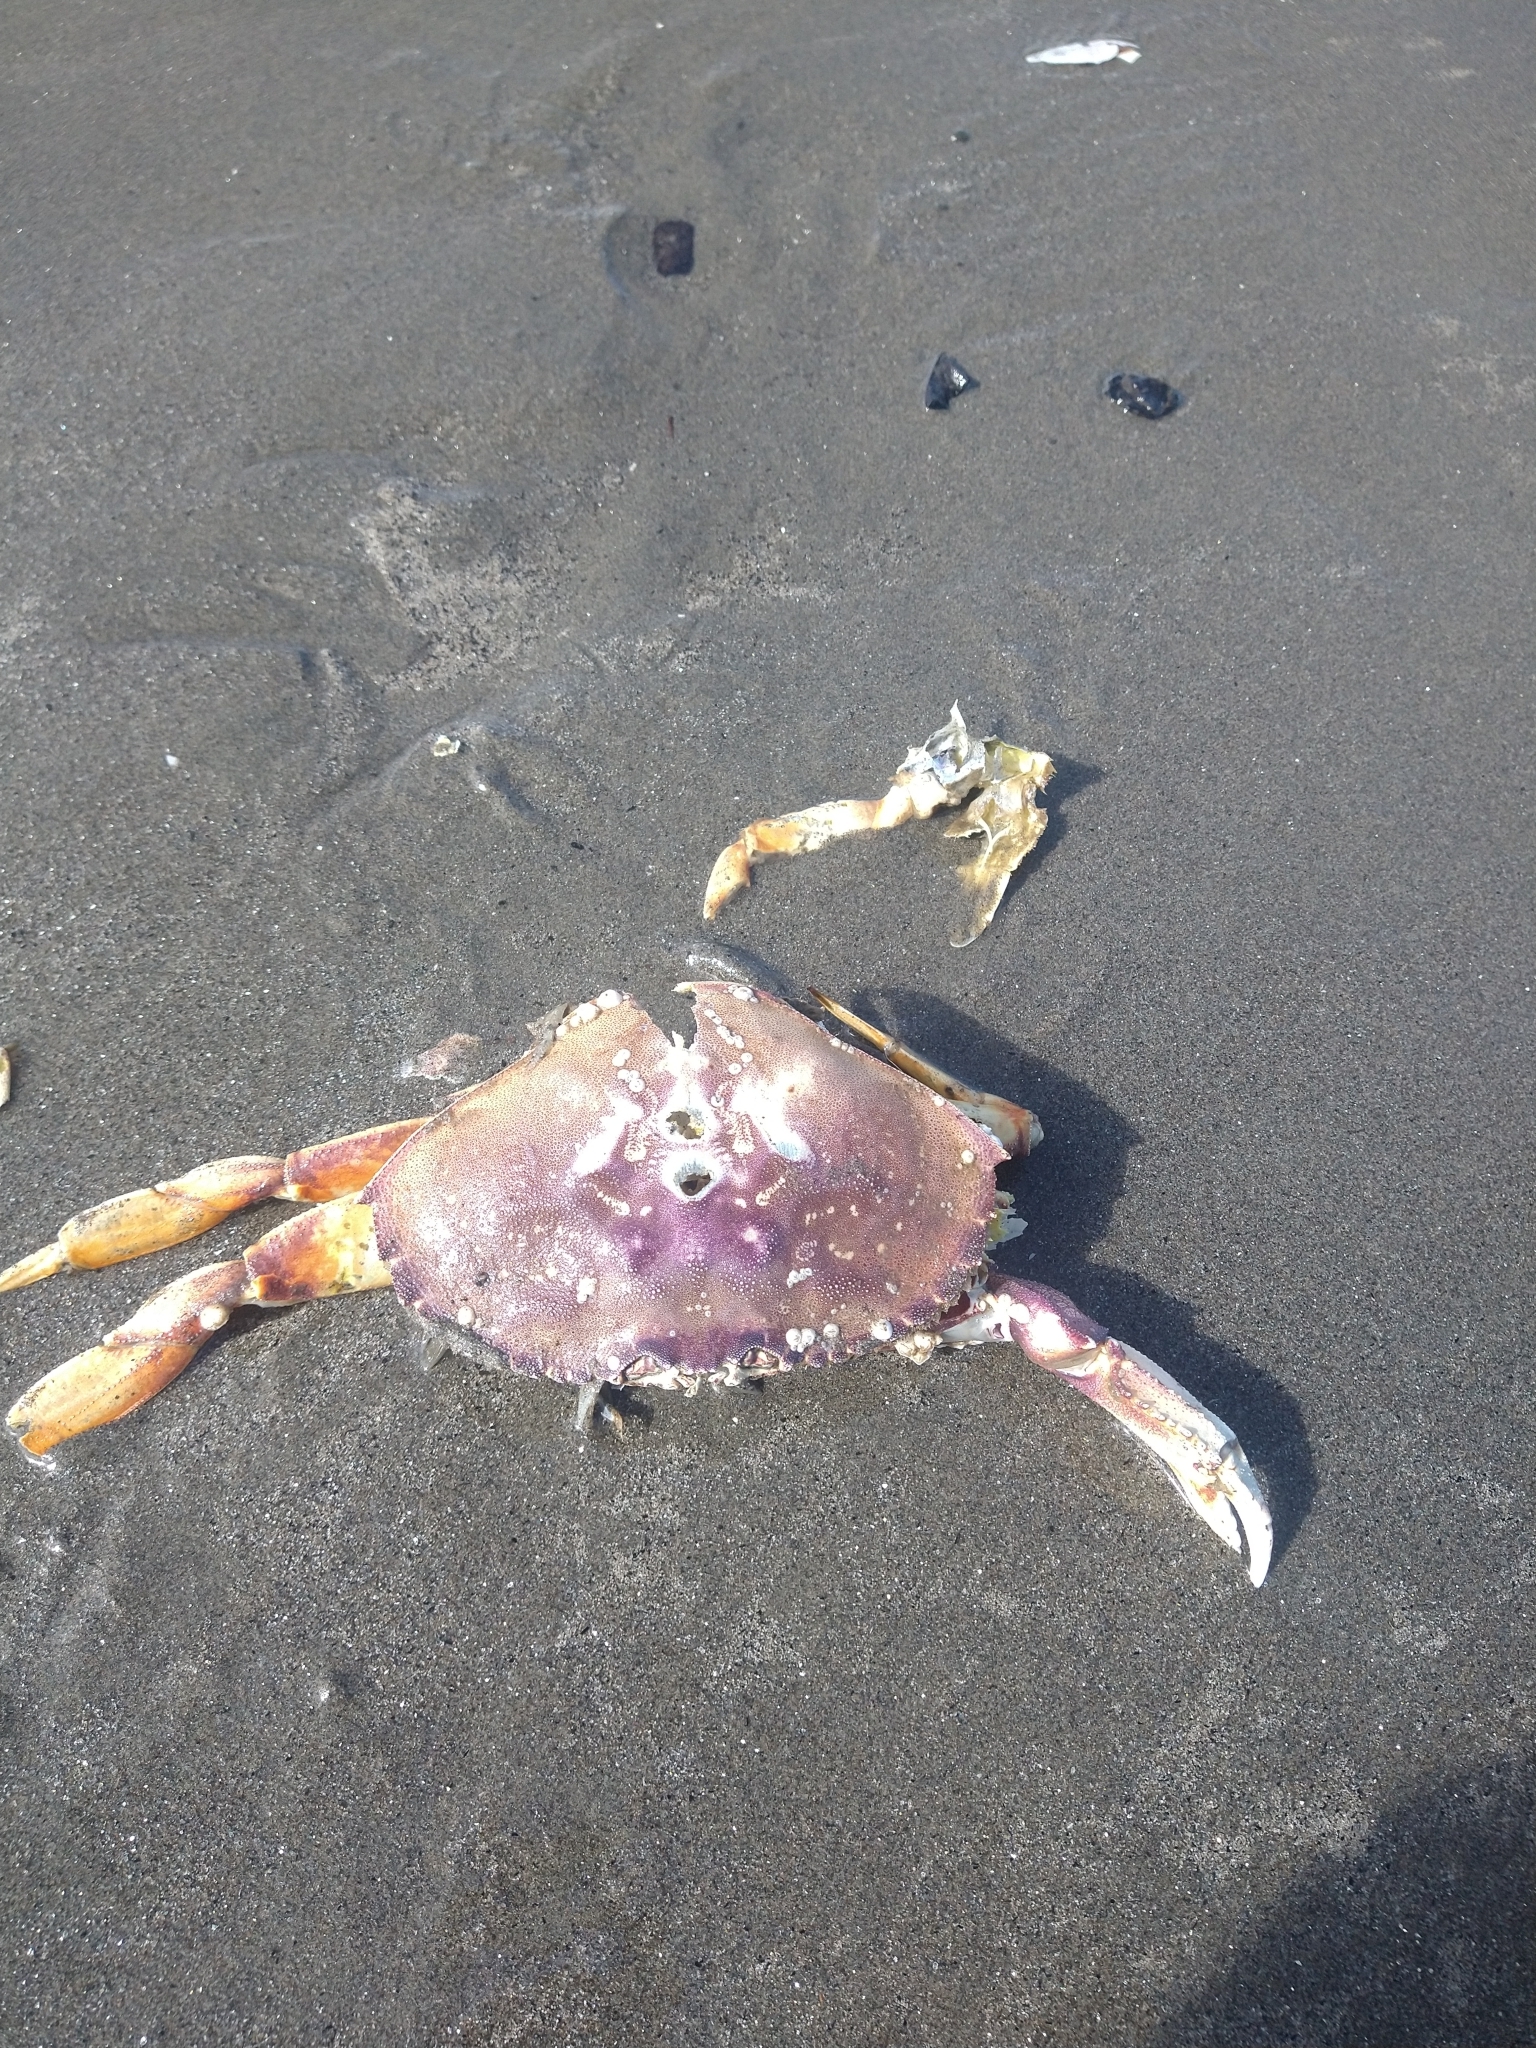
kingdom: Animalia
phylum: Arthropoda
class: Malacostraca
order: Decapoda
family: Cancridae
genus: Metacarcinus
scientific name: Metacarcinus magister
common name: Californian crab
